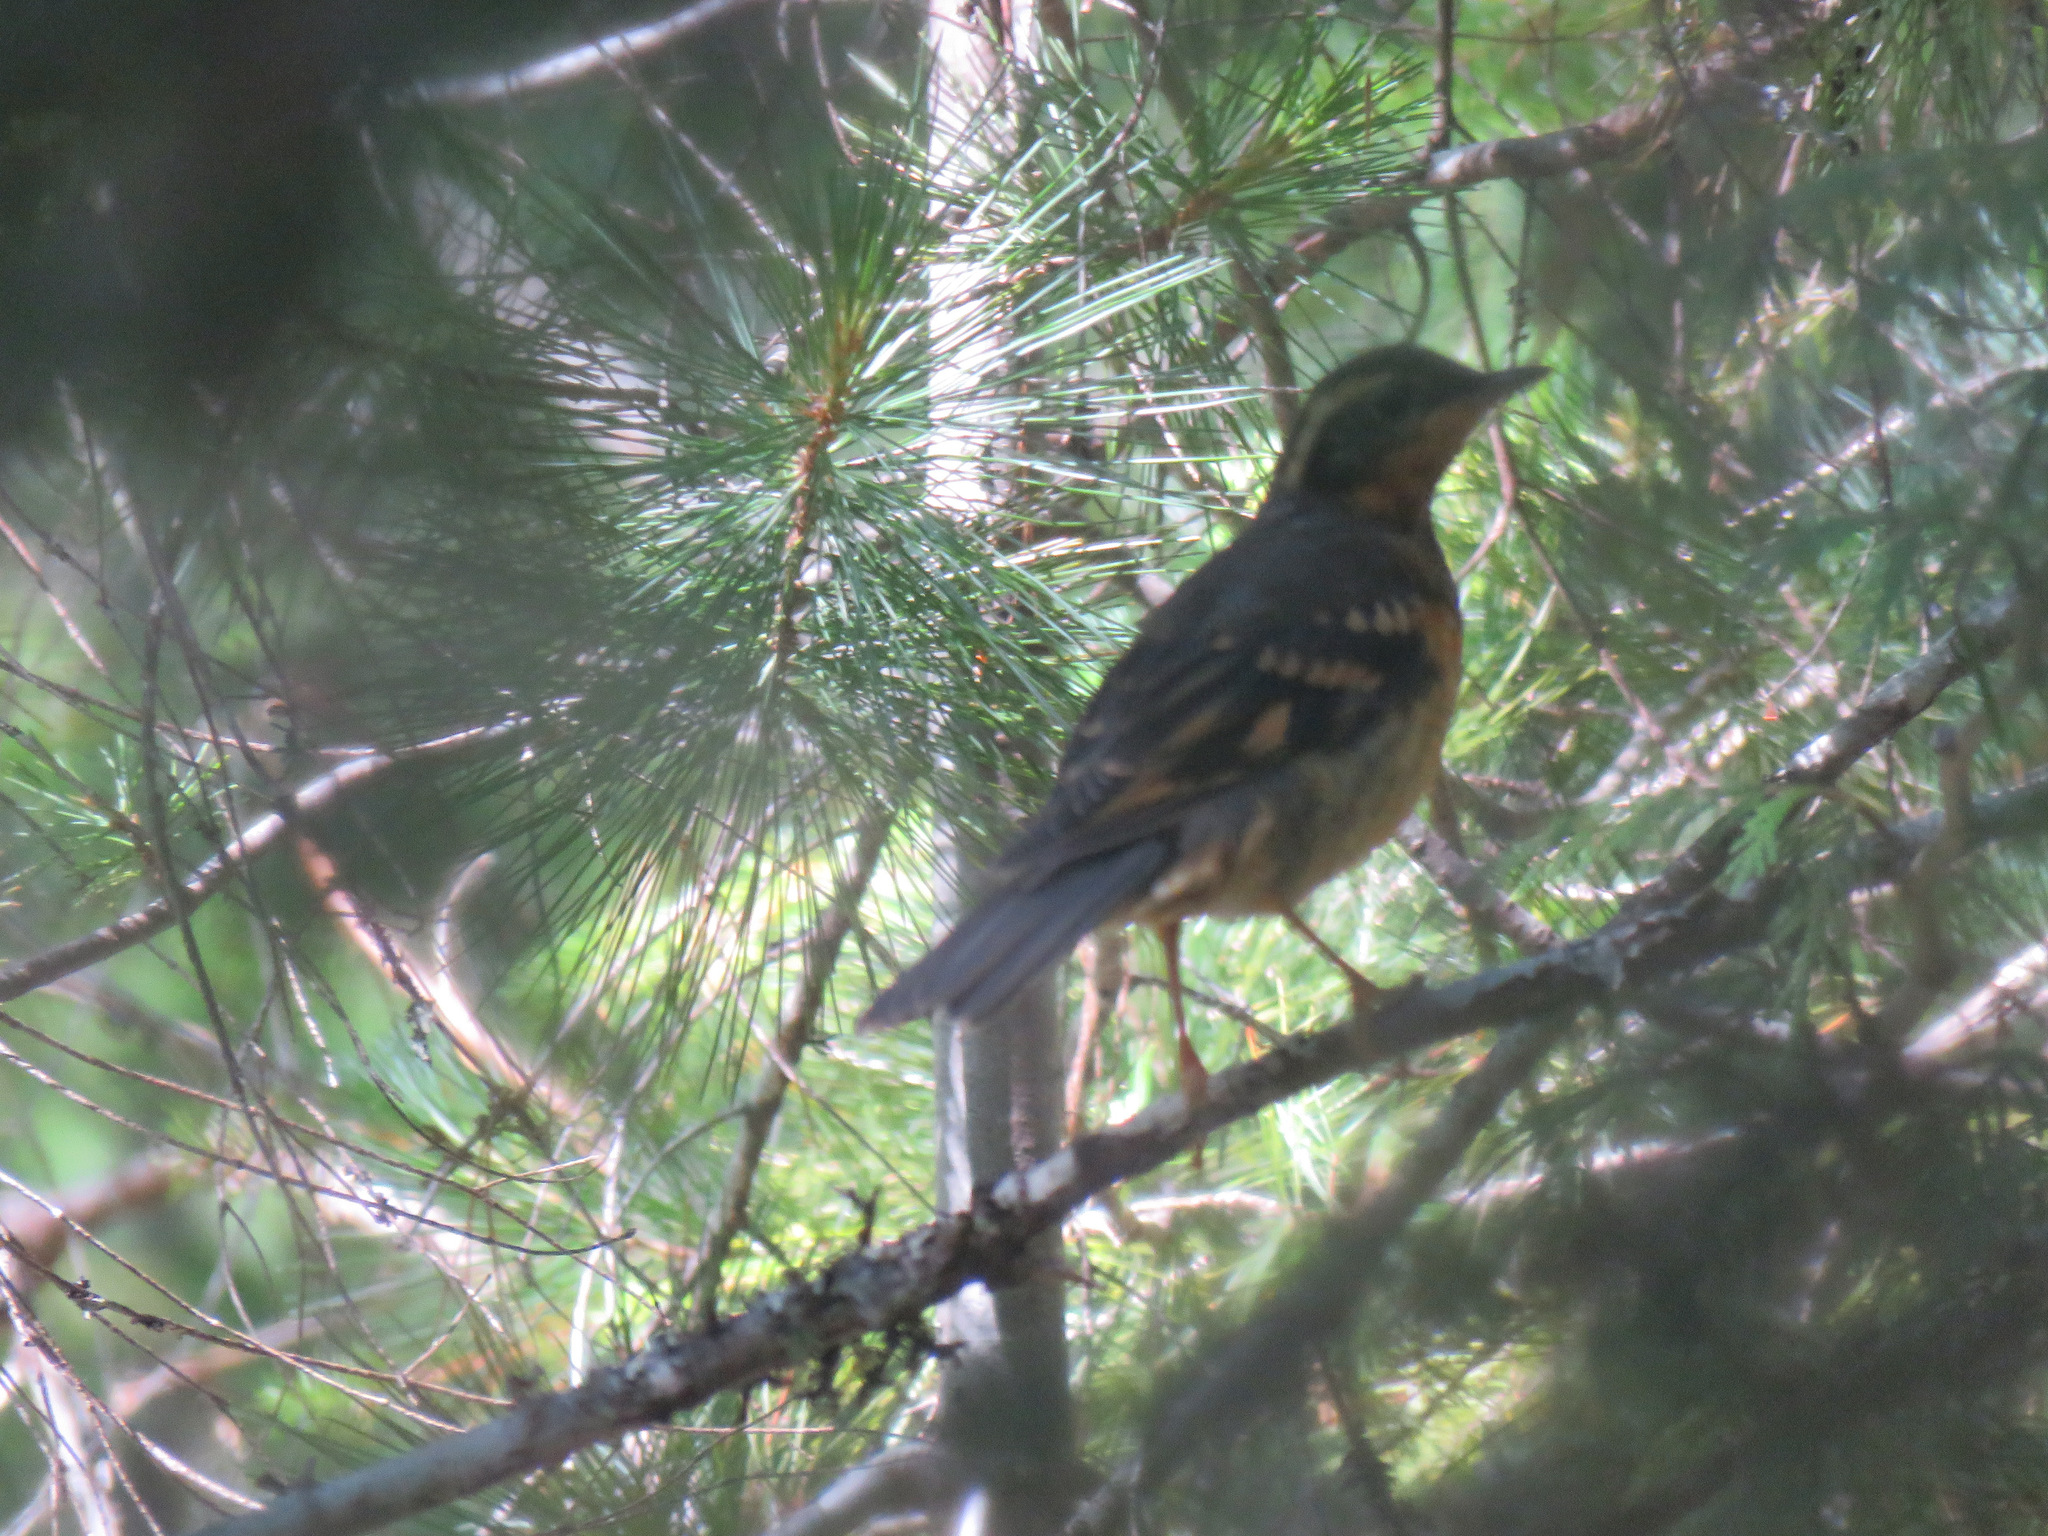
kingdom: Animalia
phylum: Chordata
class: Aves
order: Passeriformes
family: Turdidae
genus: Ixoreus
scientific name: Ixoreus naevius
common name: Varied thrush
